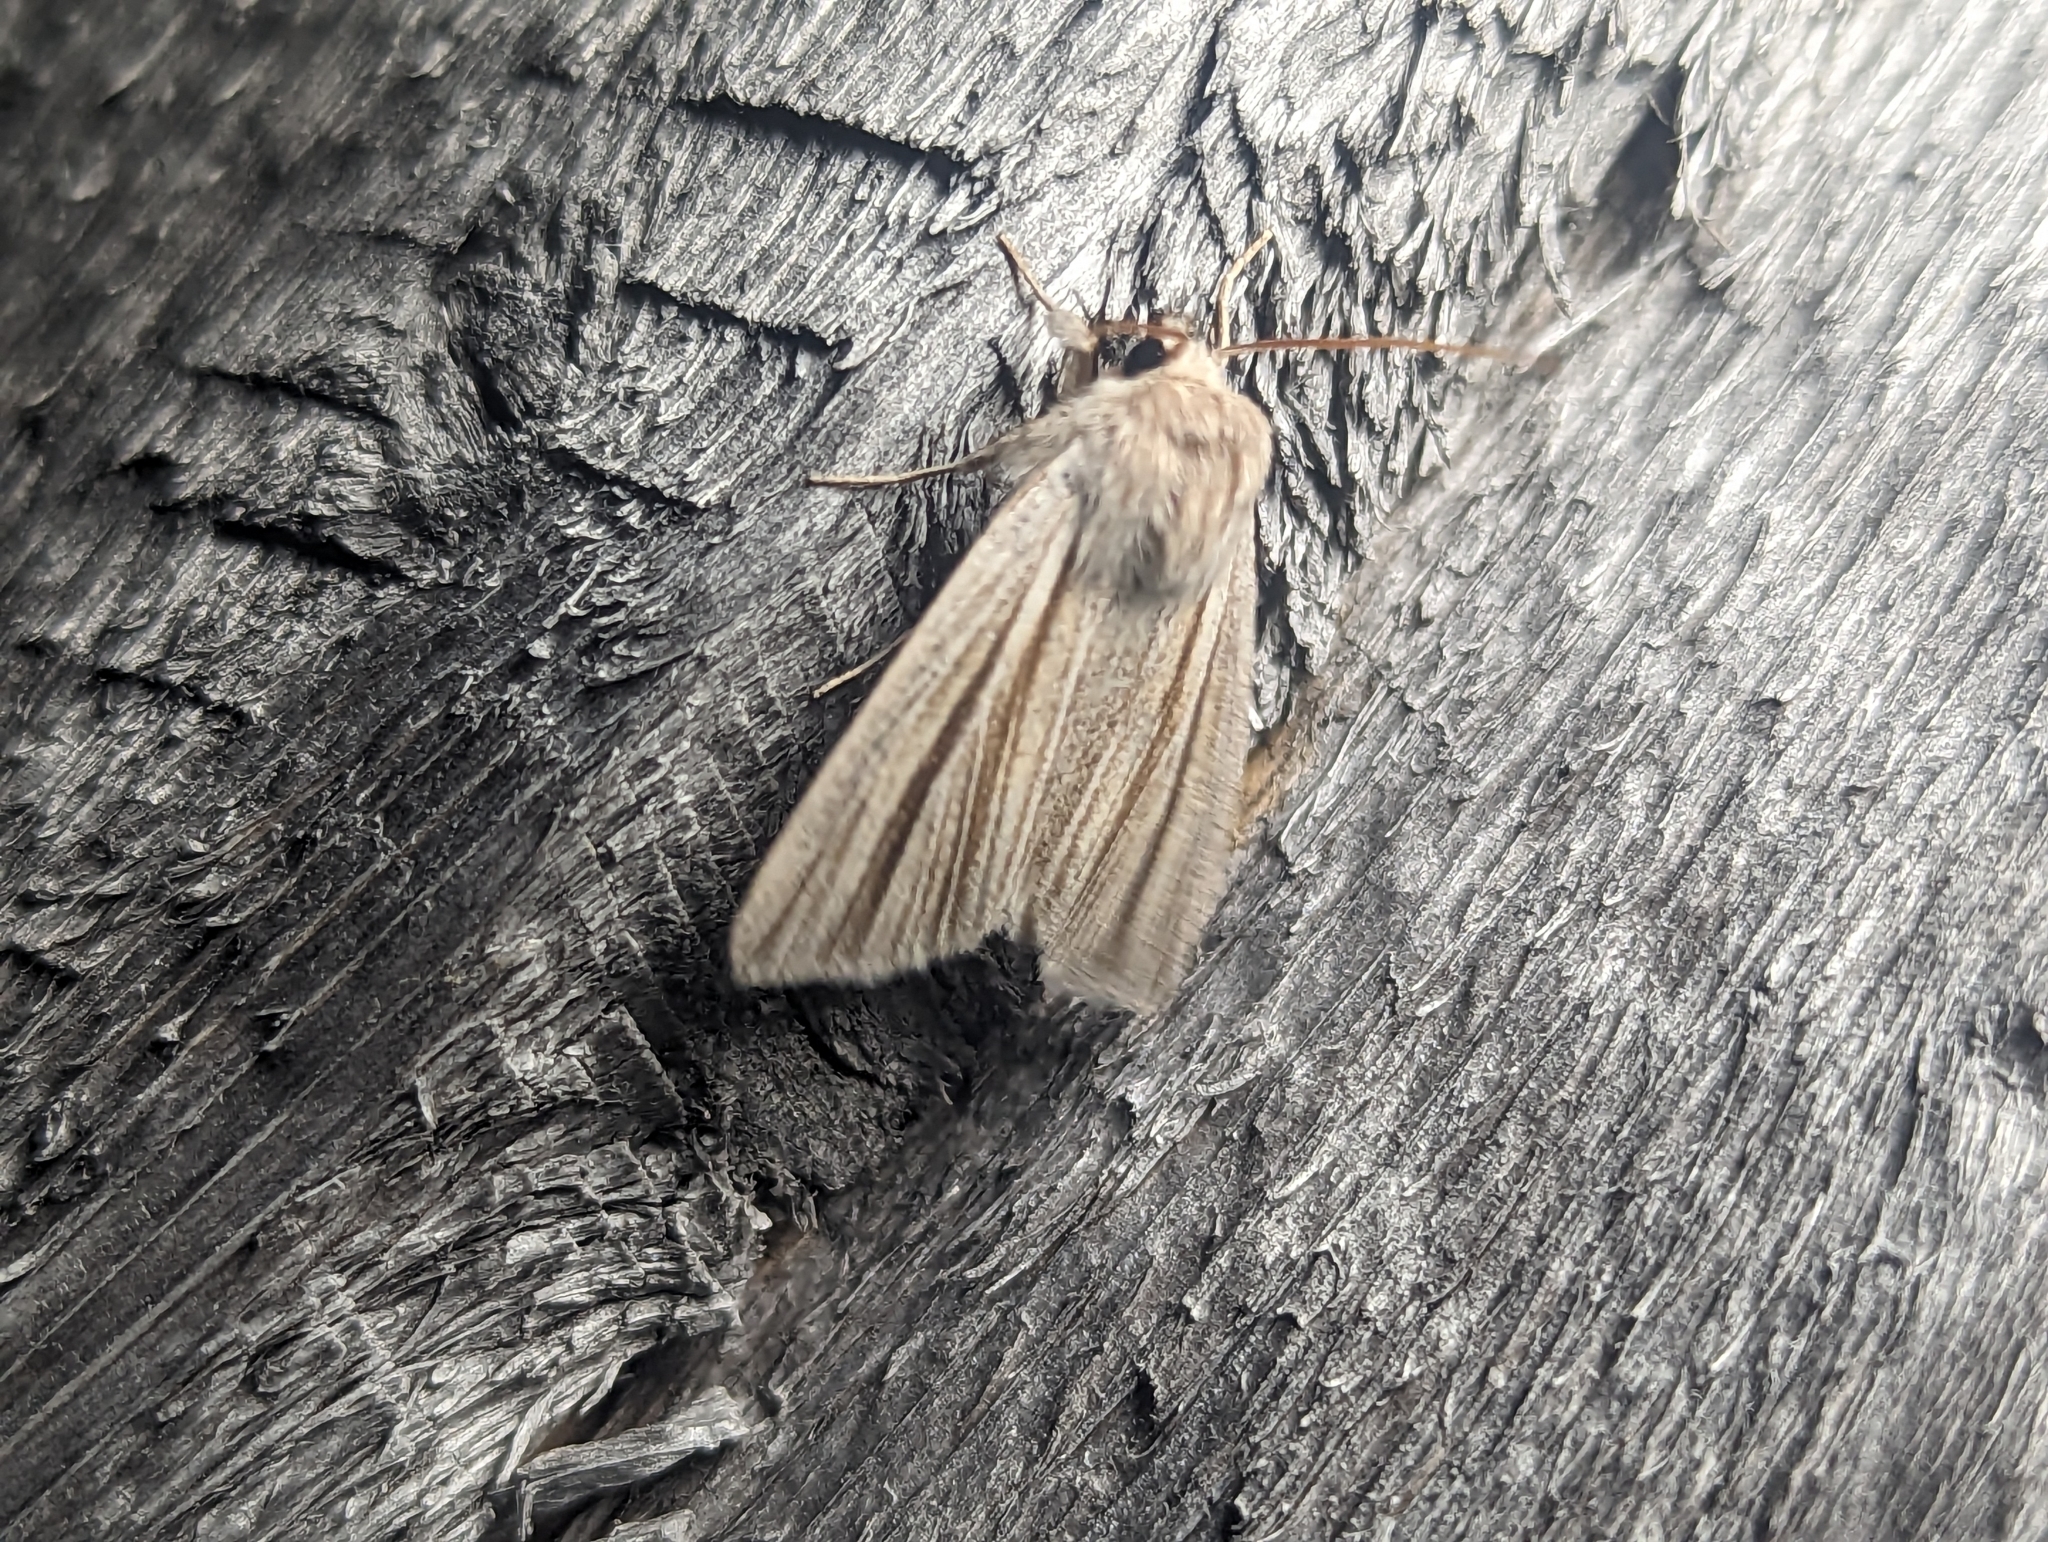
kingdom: Animalia
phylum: Arthropoda
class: Insecta
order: Lepidoptera
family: Noctuidae
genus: Acronicta
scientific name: Acronicta insularis
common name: Henry's marsh moth
